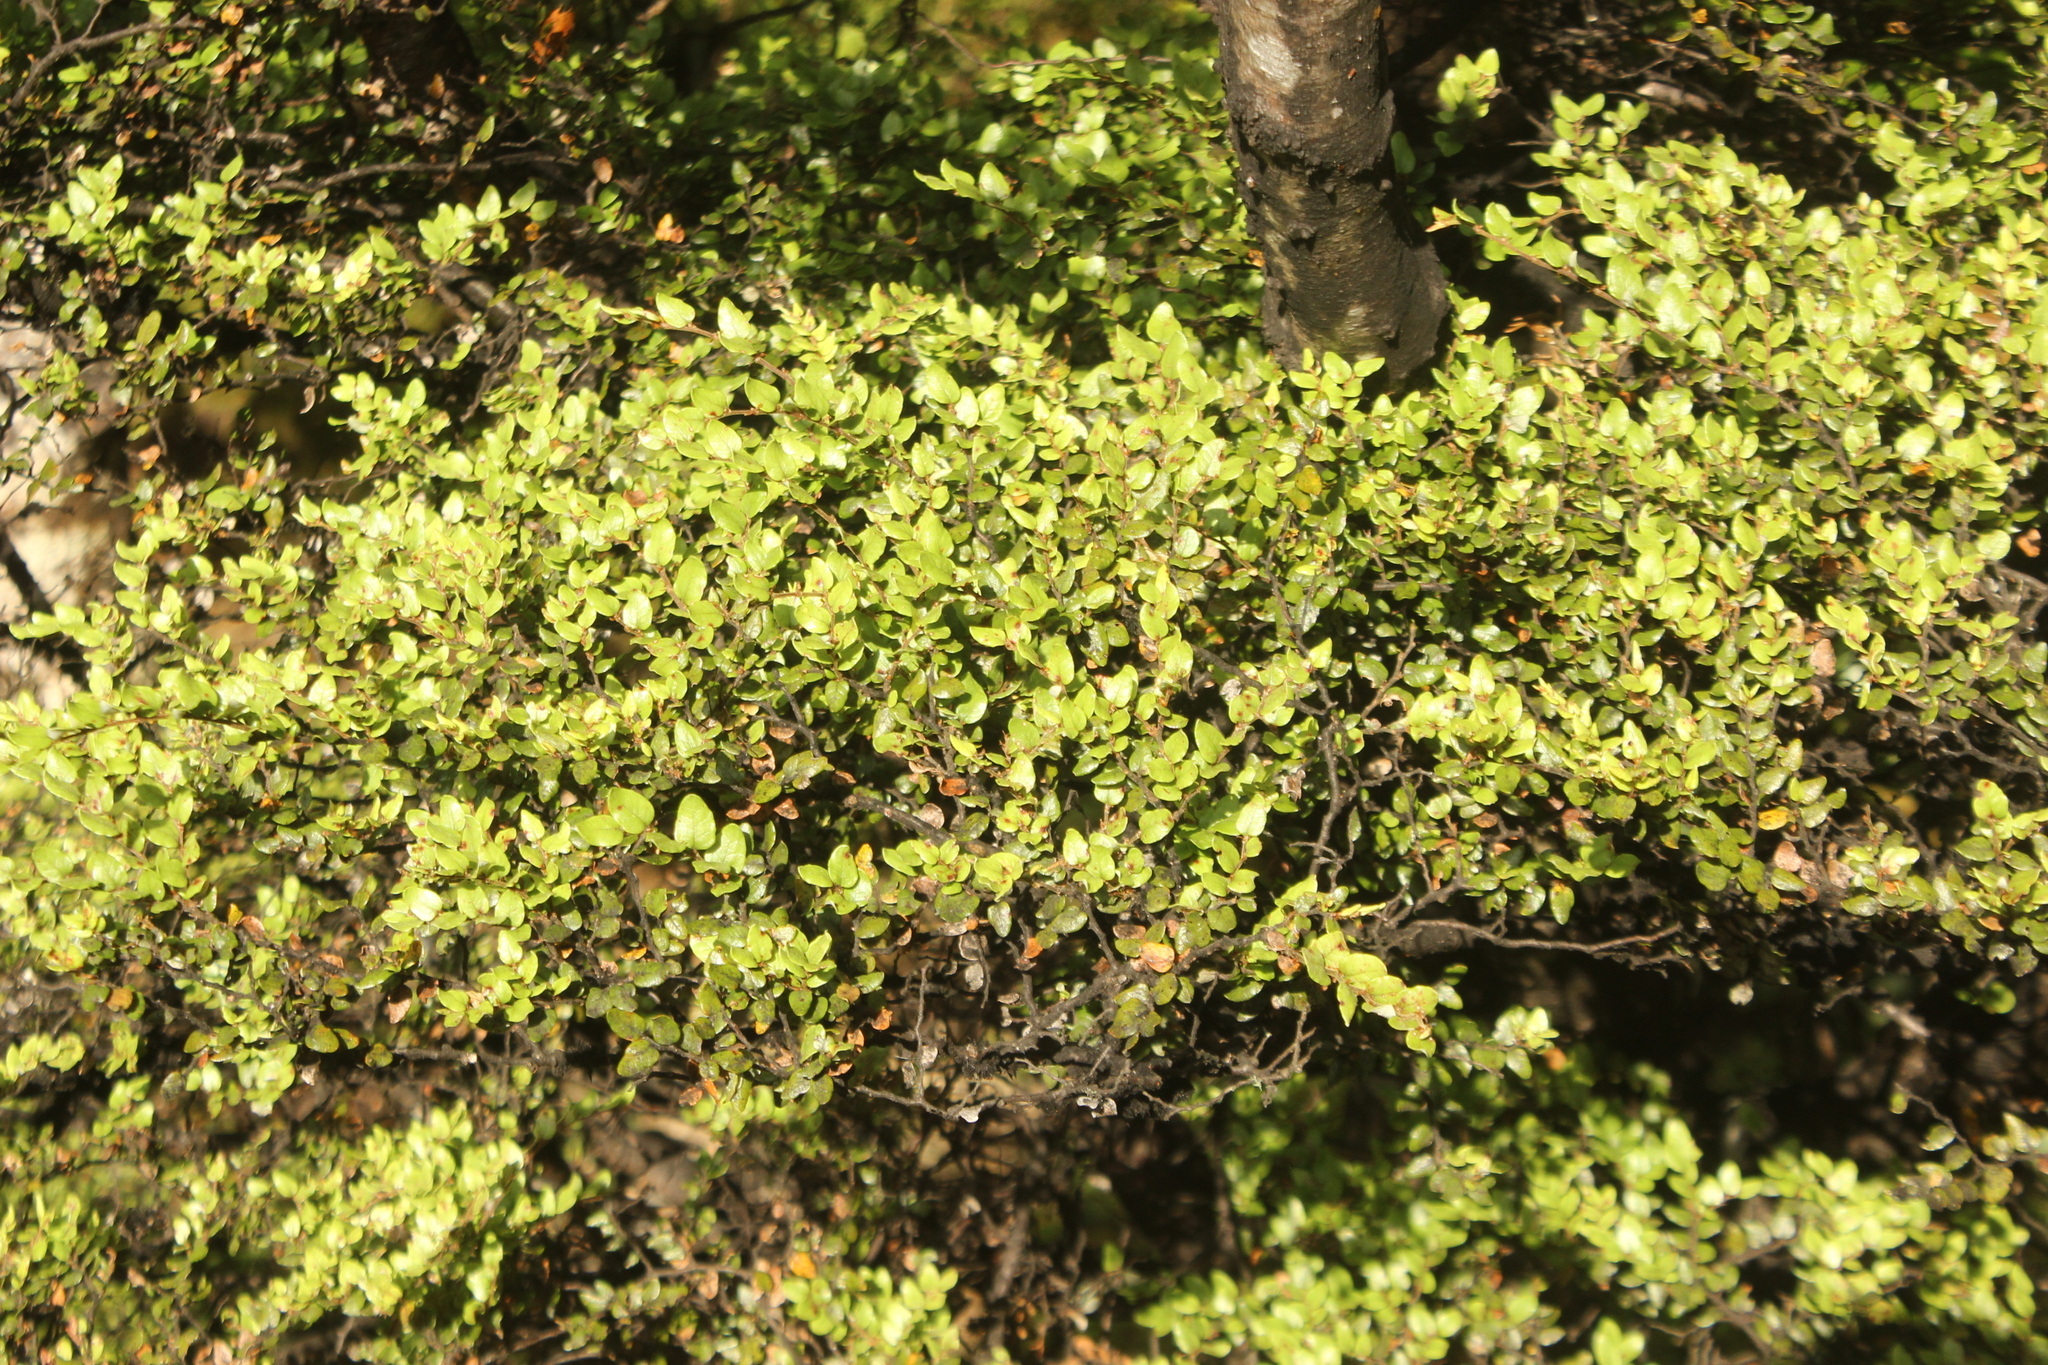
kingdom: Plantae
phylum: Tracheophyta
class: Magnoliopsida
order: Fagales
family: Nothofagaceae
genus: Nothofagus
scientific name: Nothofagus cliffortioides
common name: Mountain beech
